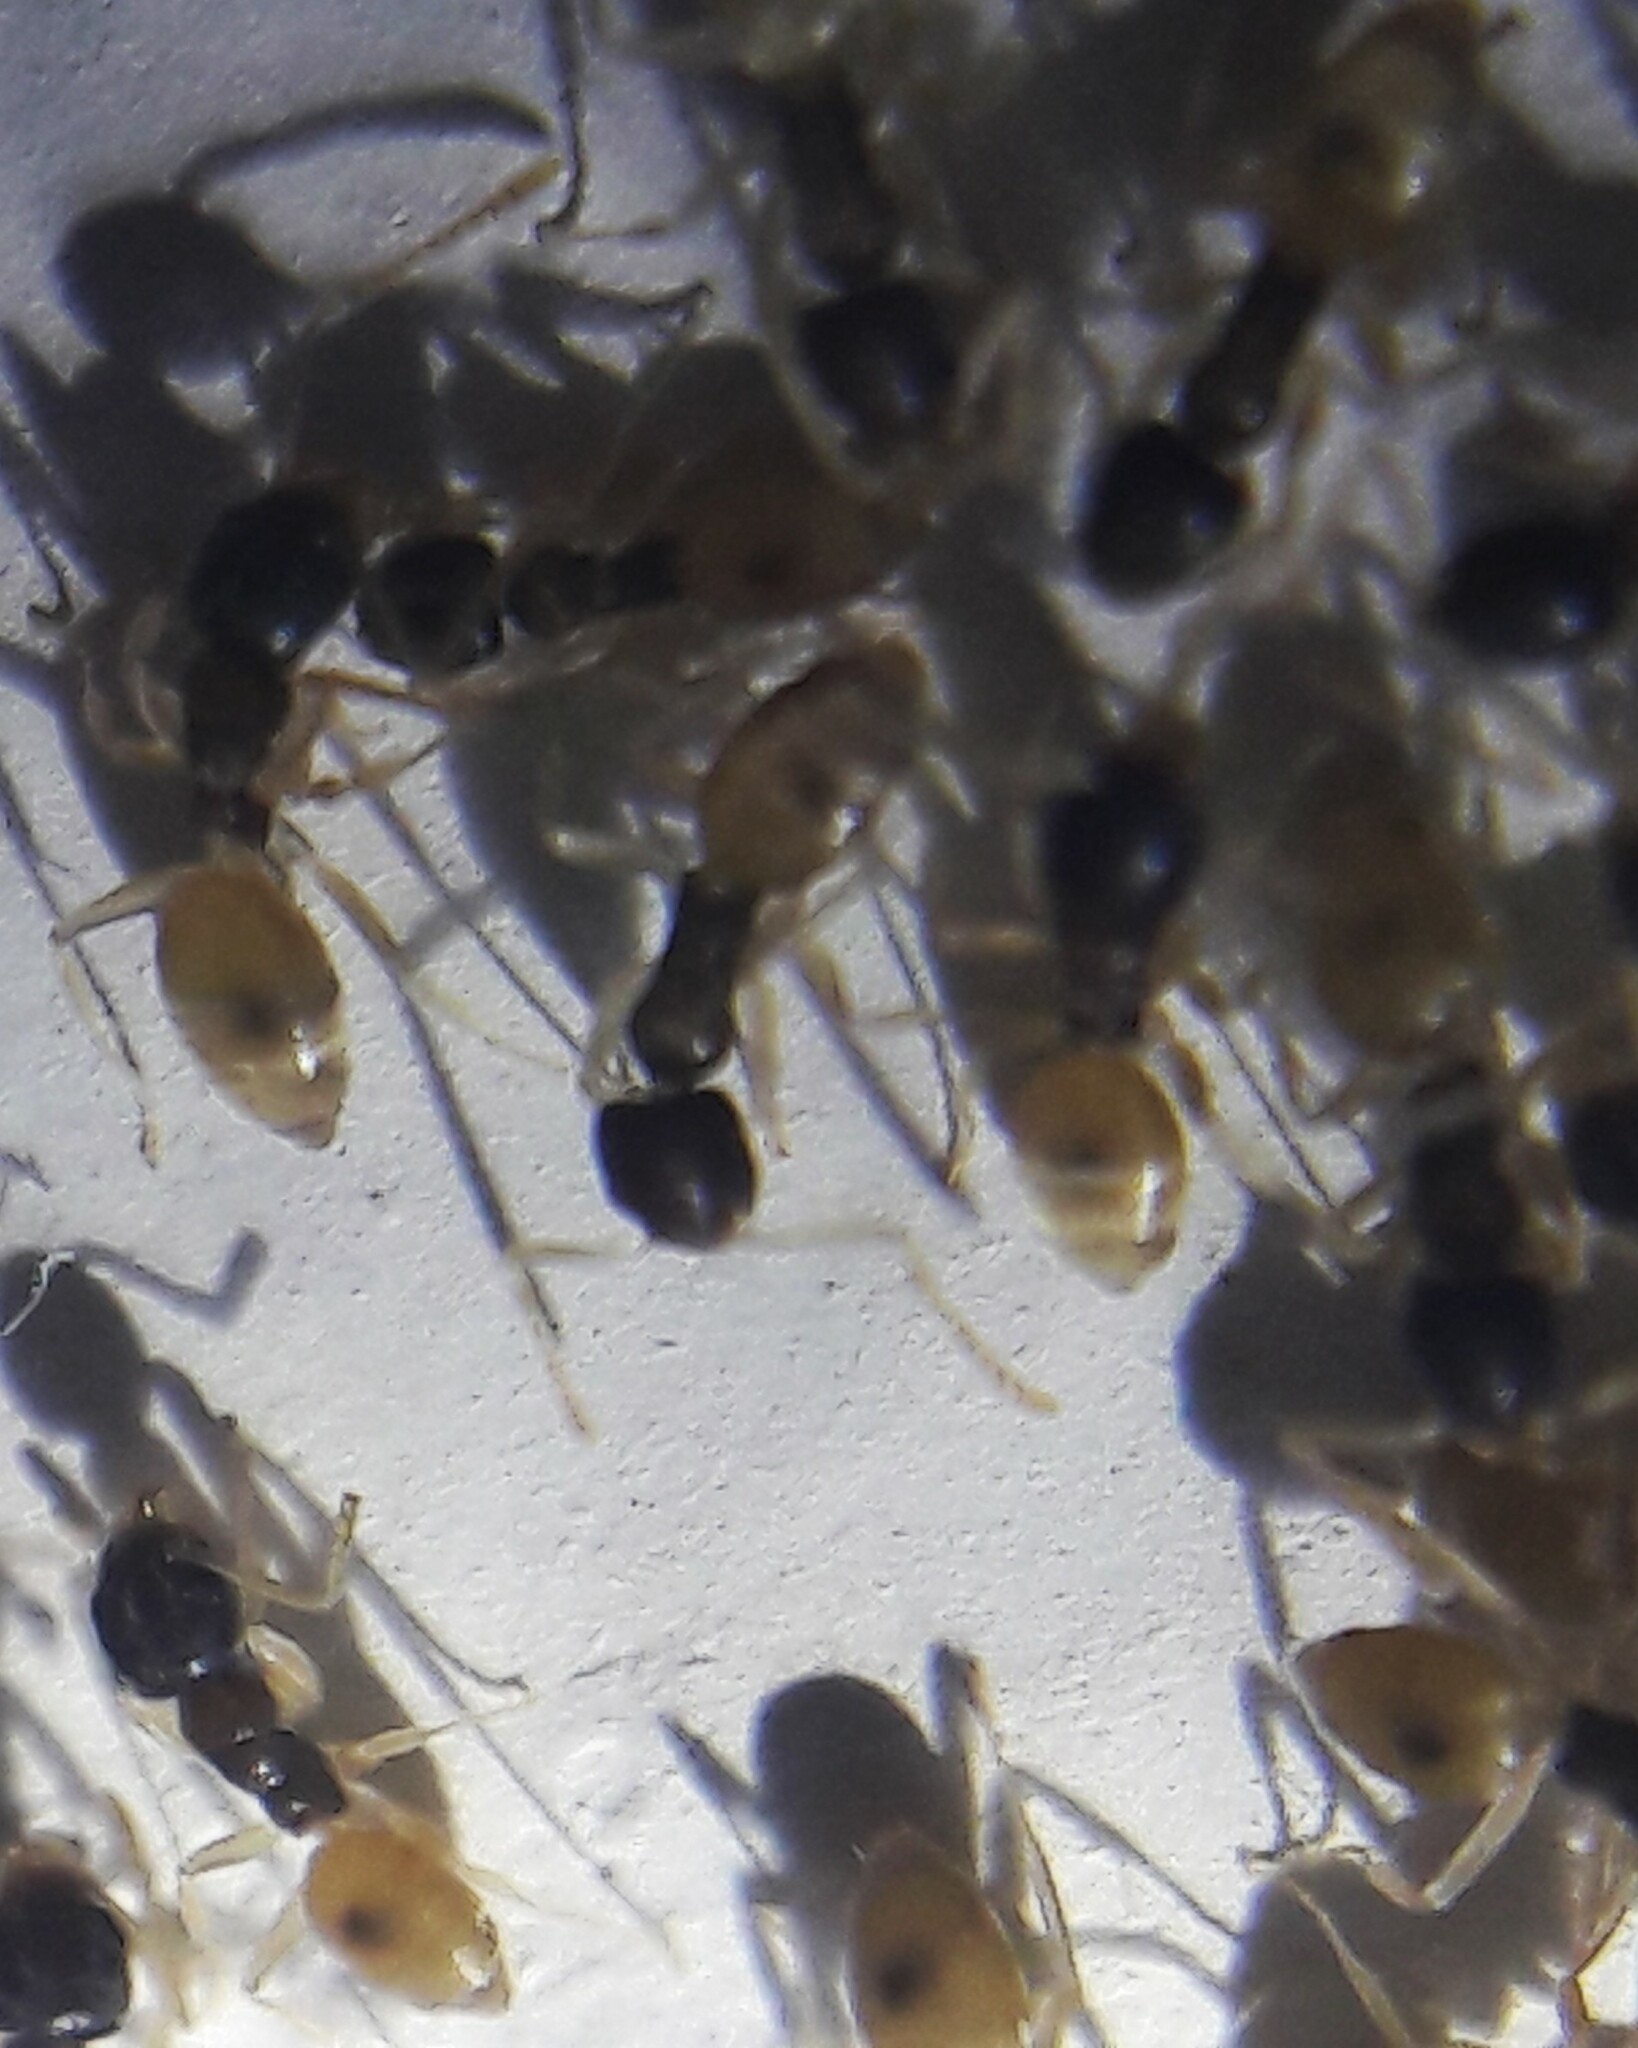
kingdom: Animalia
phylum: Arthropoda
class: Insecta
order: Hymenoptera
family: Formicidae
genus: Tapinoma
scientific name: Tapinoma melanocephalum
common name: Ghost ant
